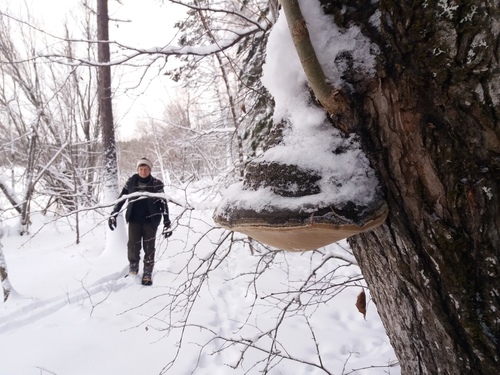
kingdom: Fungi
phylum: Basidiomycota
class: Agaricomycetes
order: Hymenochaetales
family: Hymenochaetaceae
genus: Phellinus
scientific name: Phellinus igniarius
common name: Willow bracket
